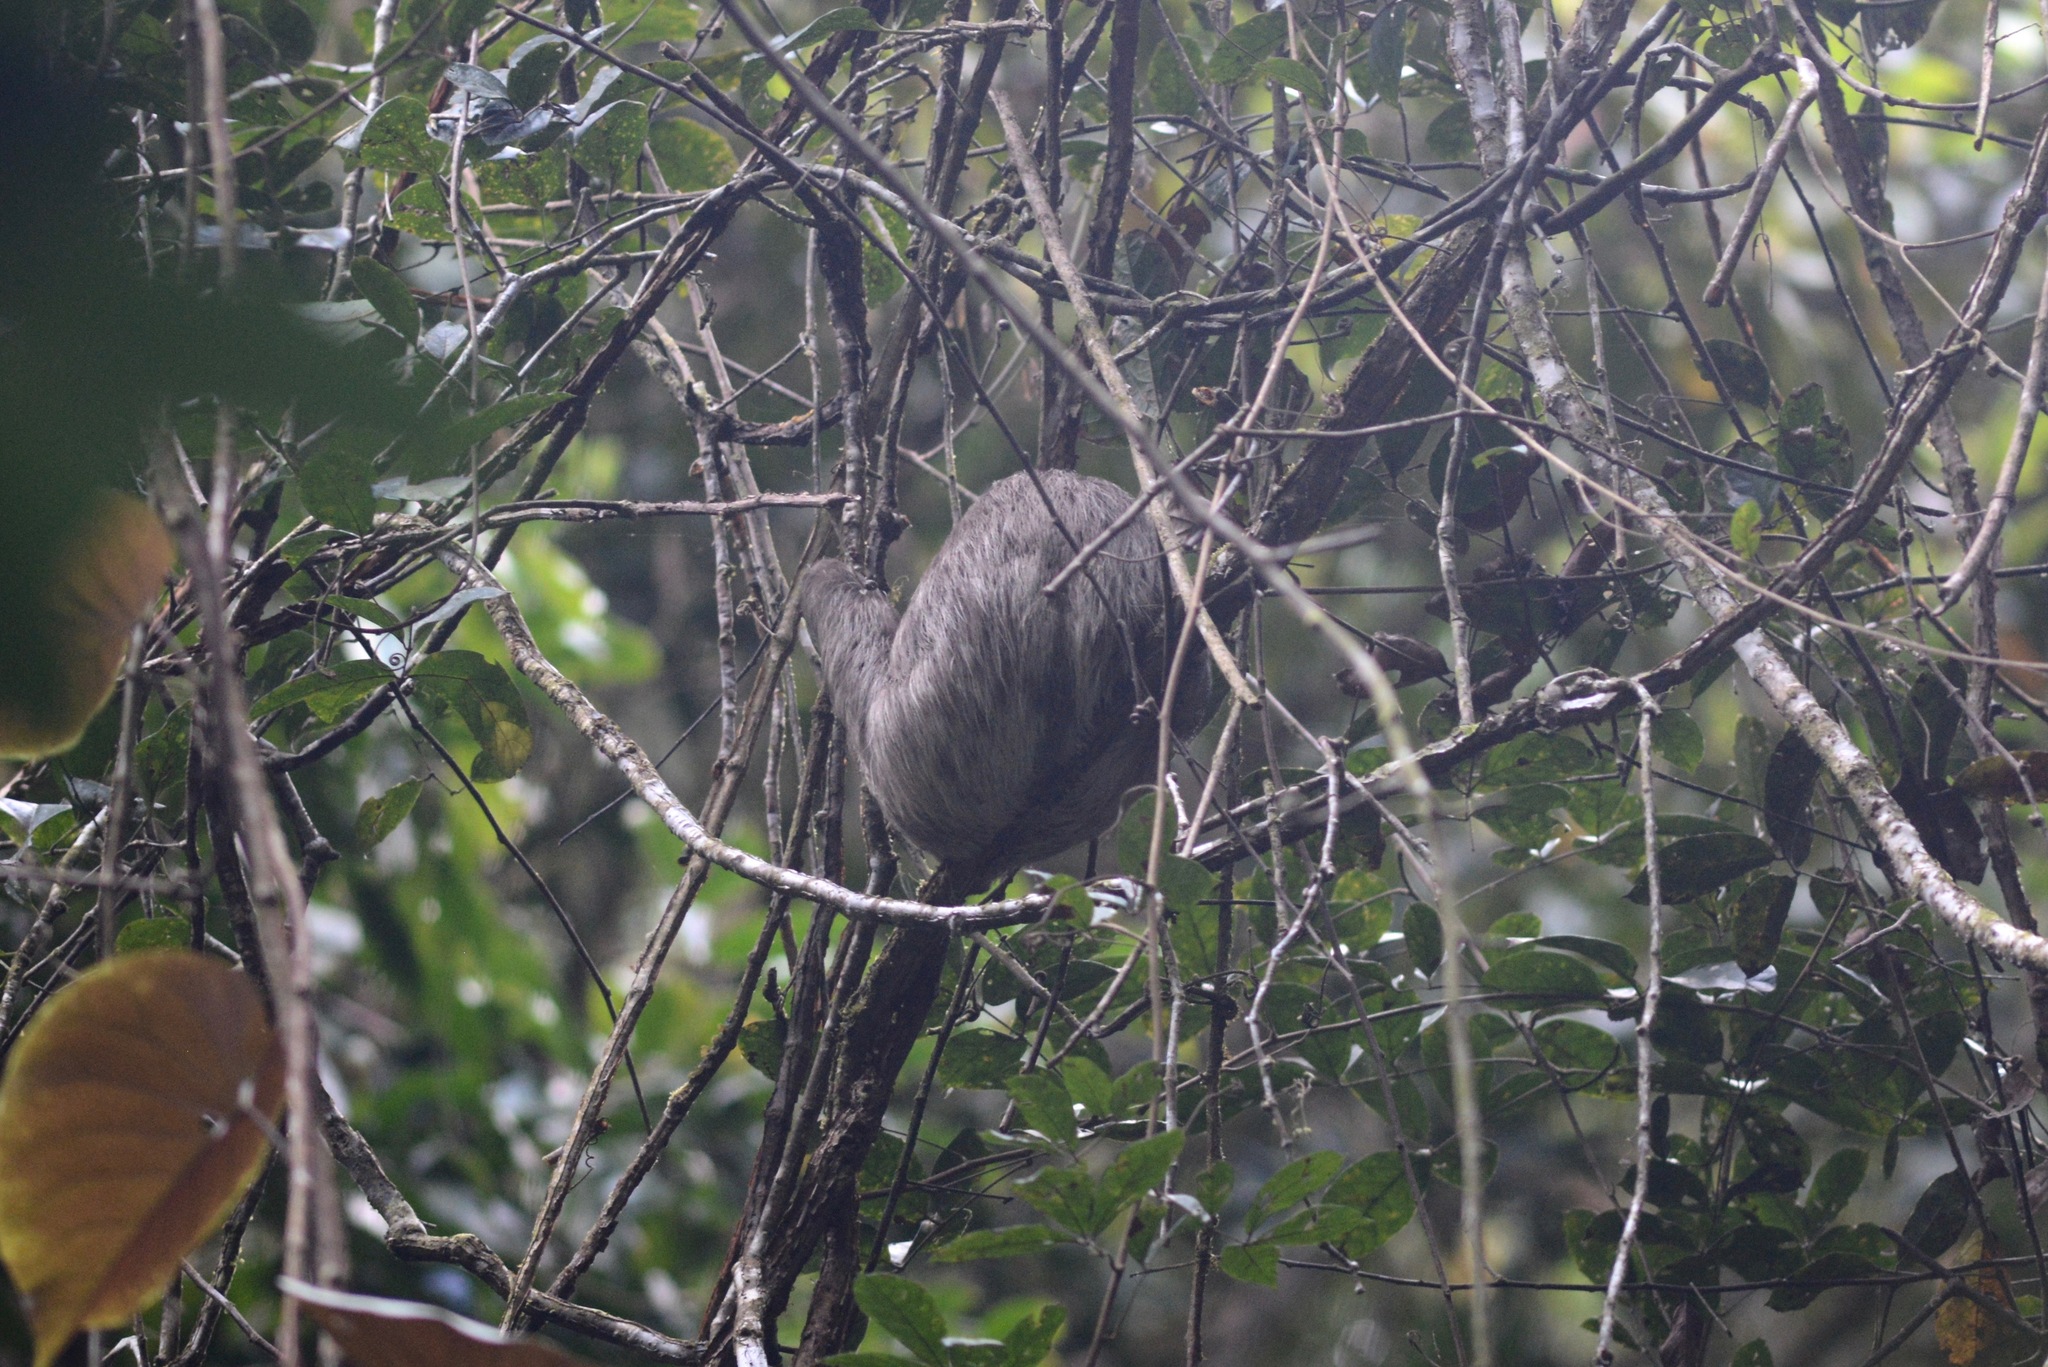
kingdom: Animalia
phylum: Chordata
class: Mammalia
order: Pilosa
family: Bradypodidae
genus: Bradypus
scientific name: Bradypus variegatus
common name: Brown-throated three-toed sloth
